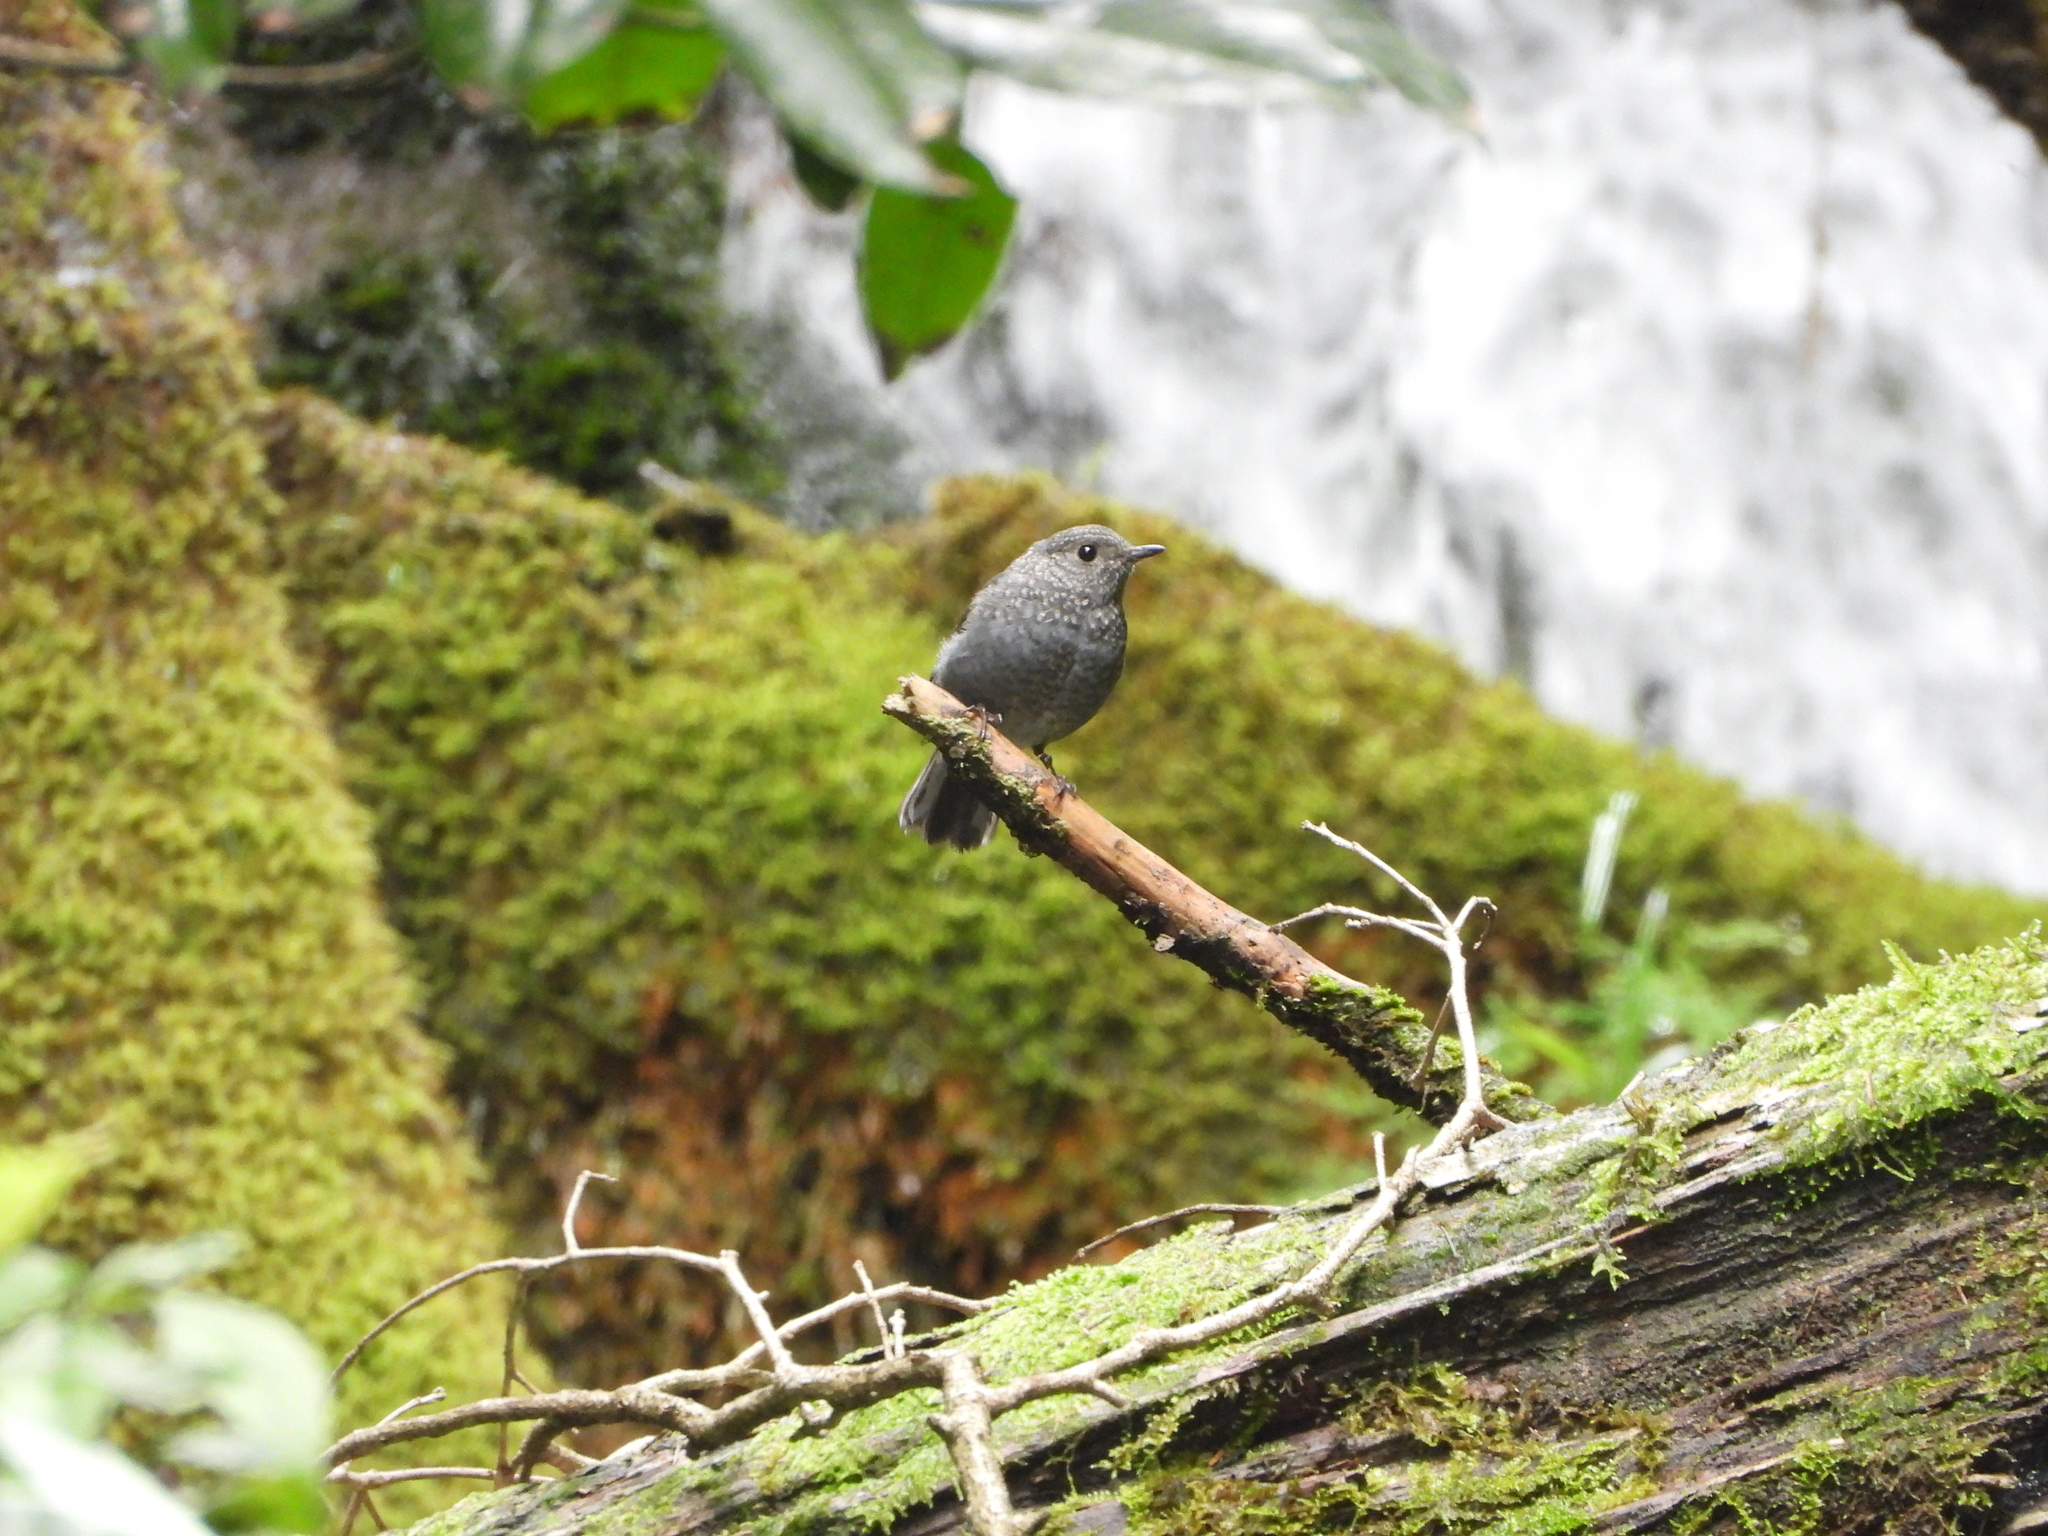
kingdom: Animalia
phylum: Chordata
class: Aves
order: Passeriformes
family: Muscicapidae
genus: Phoenicurus
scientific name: Phoenicurus fuliginosus
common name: Plumbeous water redstart
